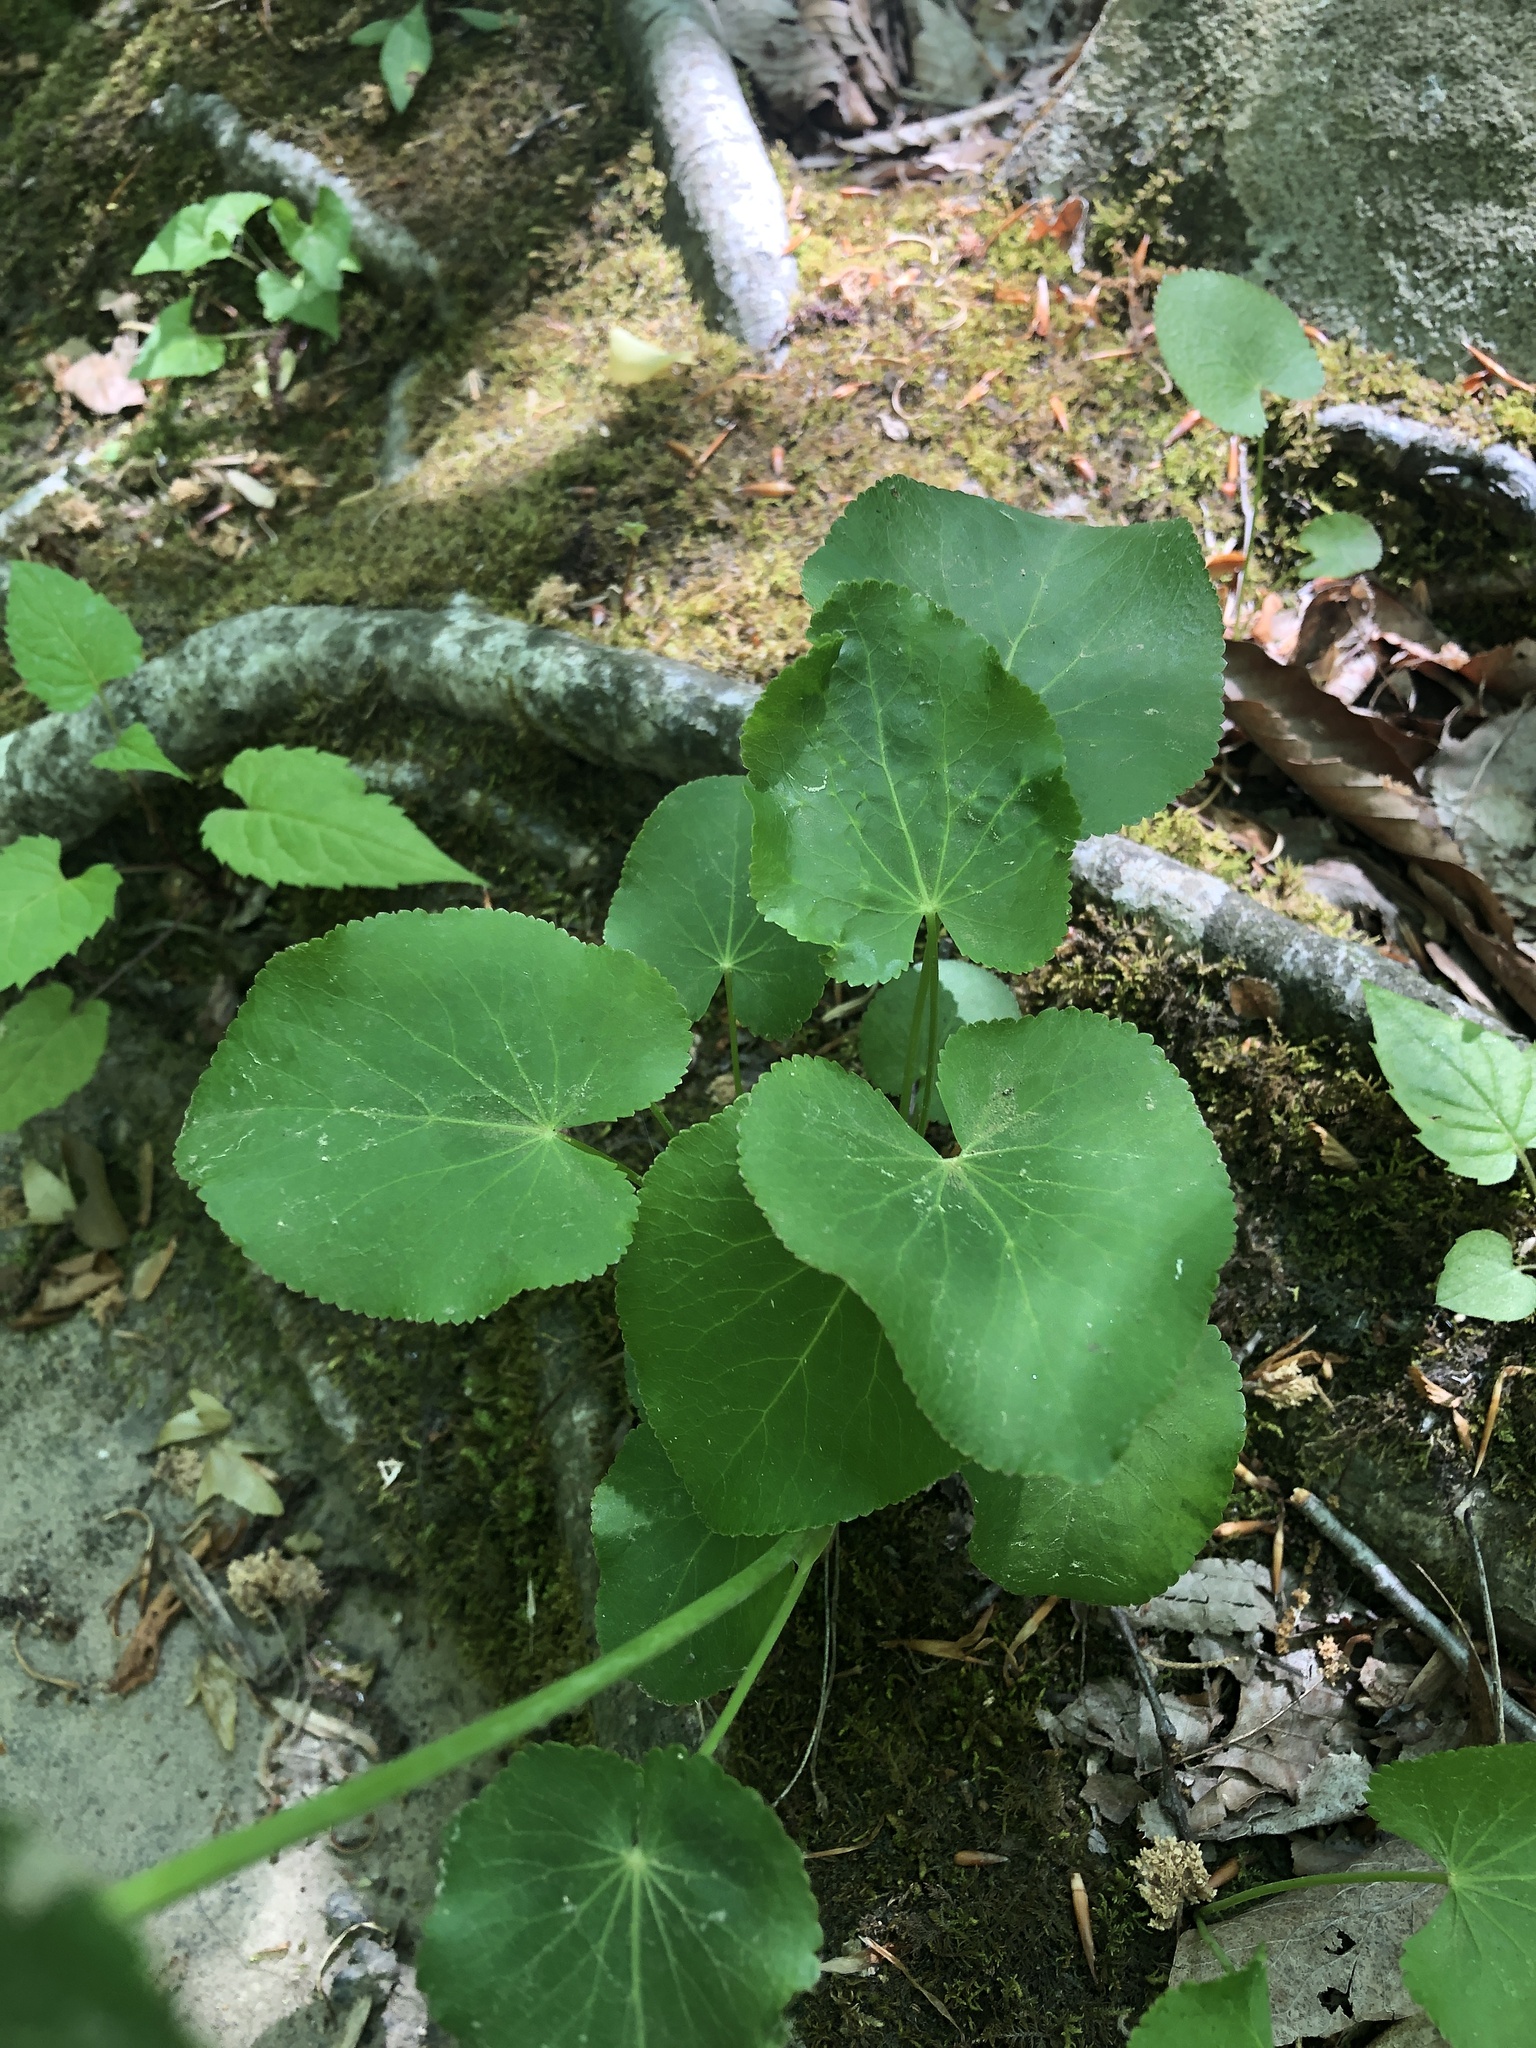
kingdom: Plantae
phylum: Tracheophyta
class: Magnoliopsida
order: Apiales
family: Apiaceae
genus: Zizia
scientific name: Zizia aptera
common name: Heart-leaved alexanders
